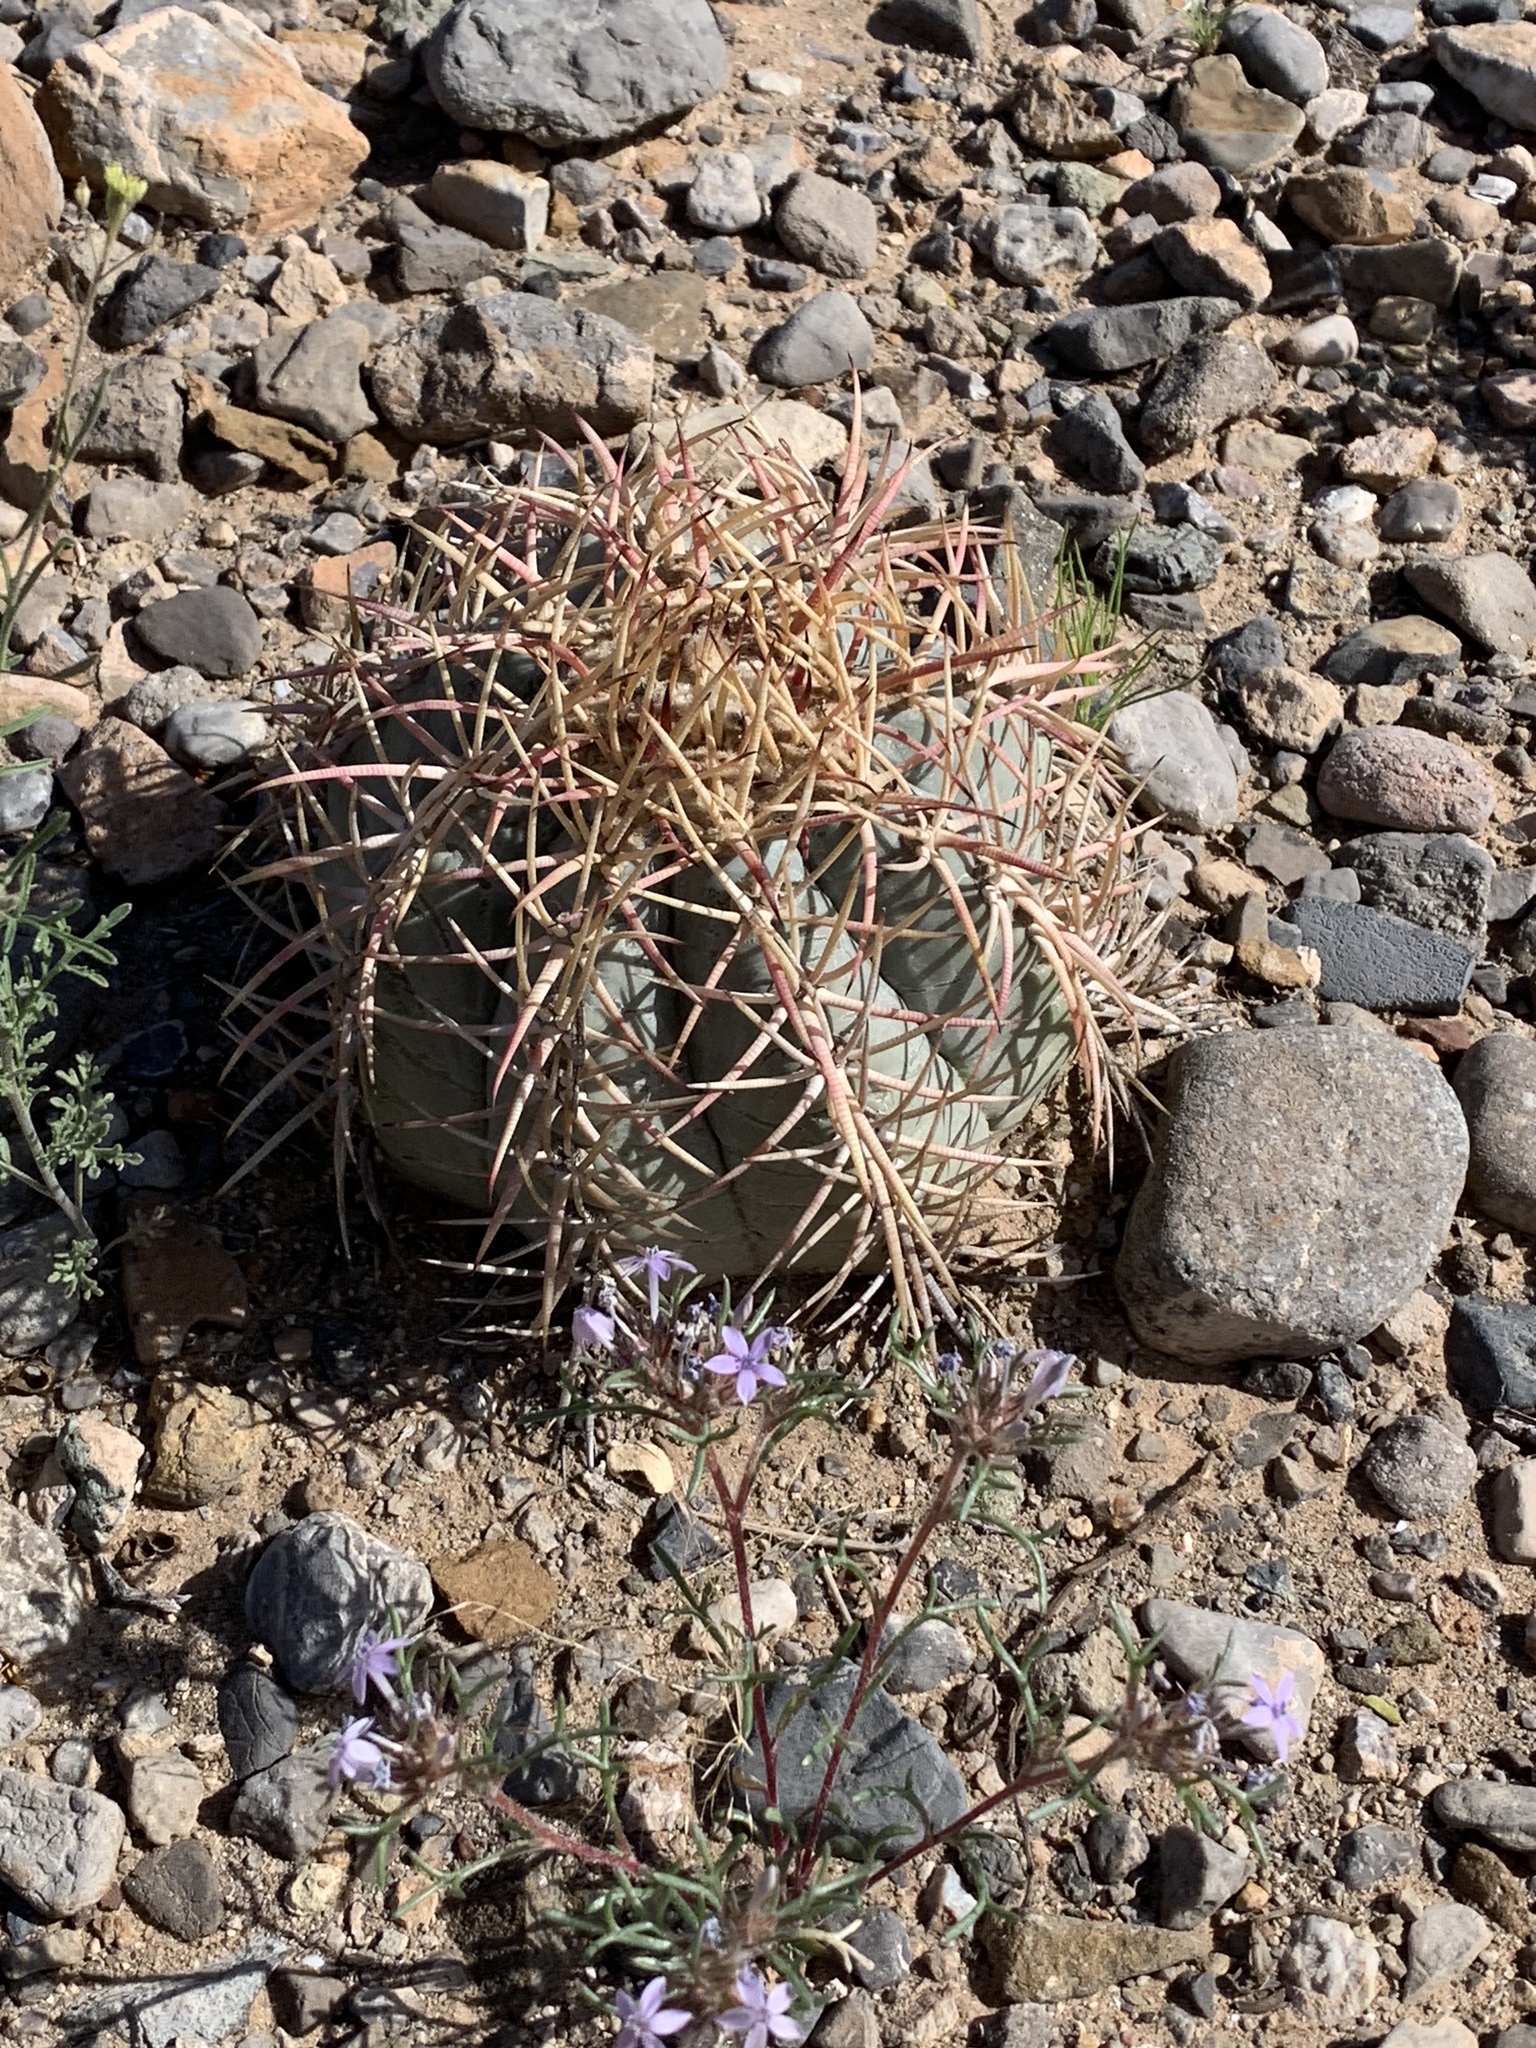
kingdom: Plantae
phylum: Tracheophyta
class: Magnoliopsida
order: Caryophyllales
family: Cactaceae
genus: Echinocactus
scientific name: Echinocactus horizonthalonius
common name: Devilshead
